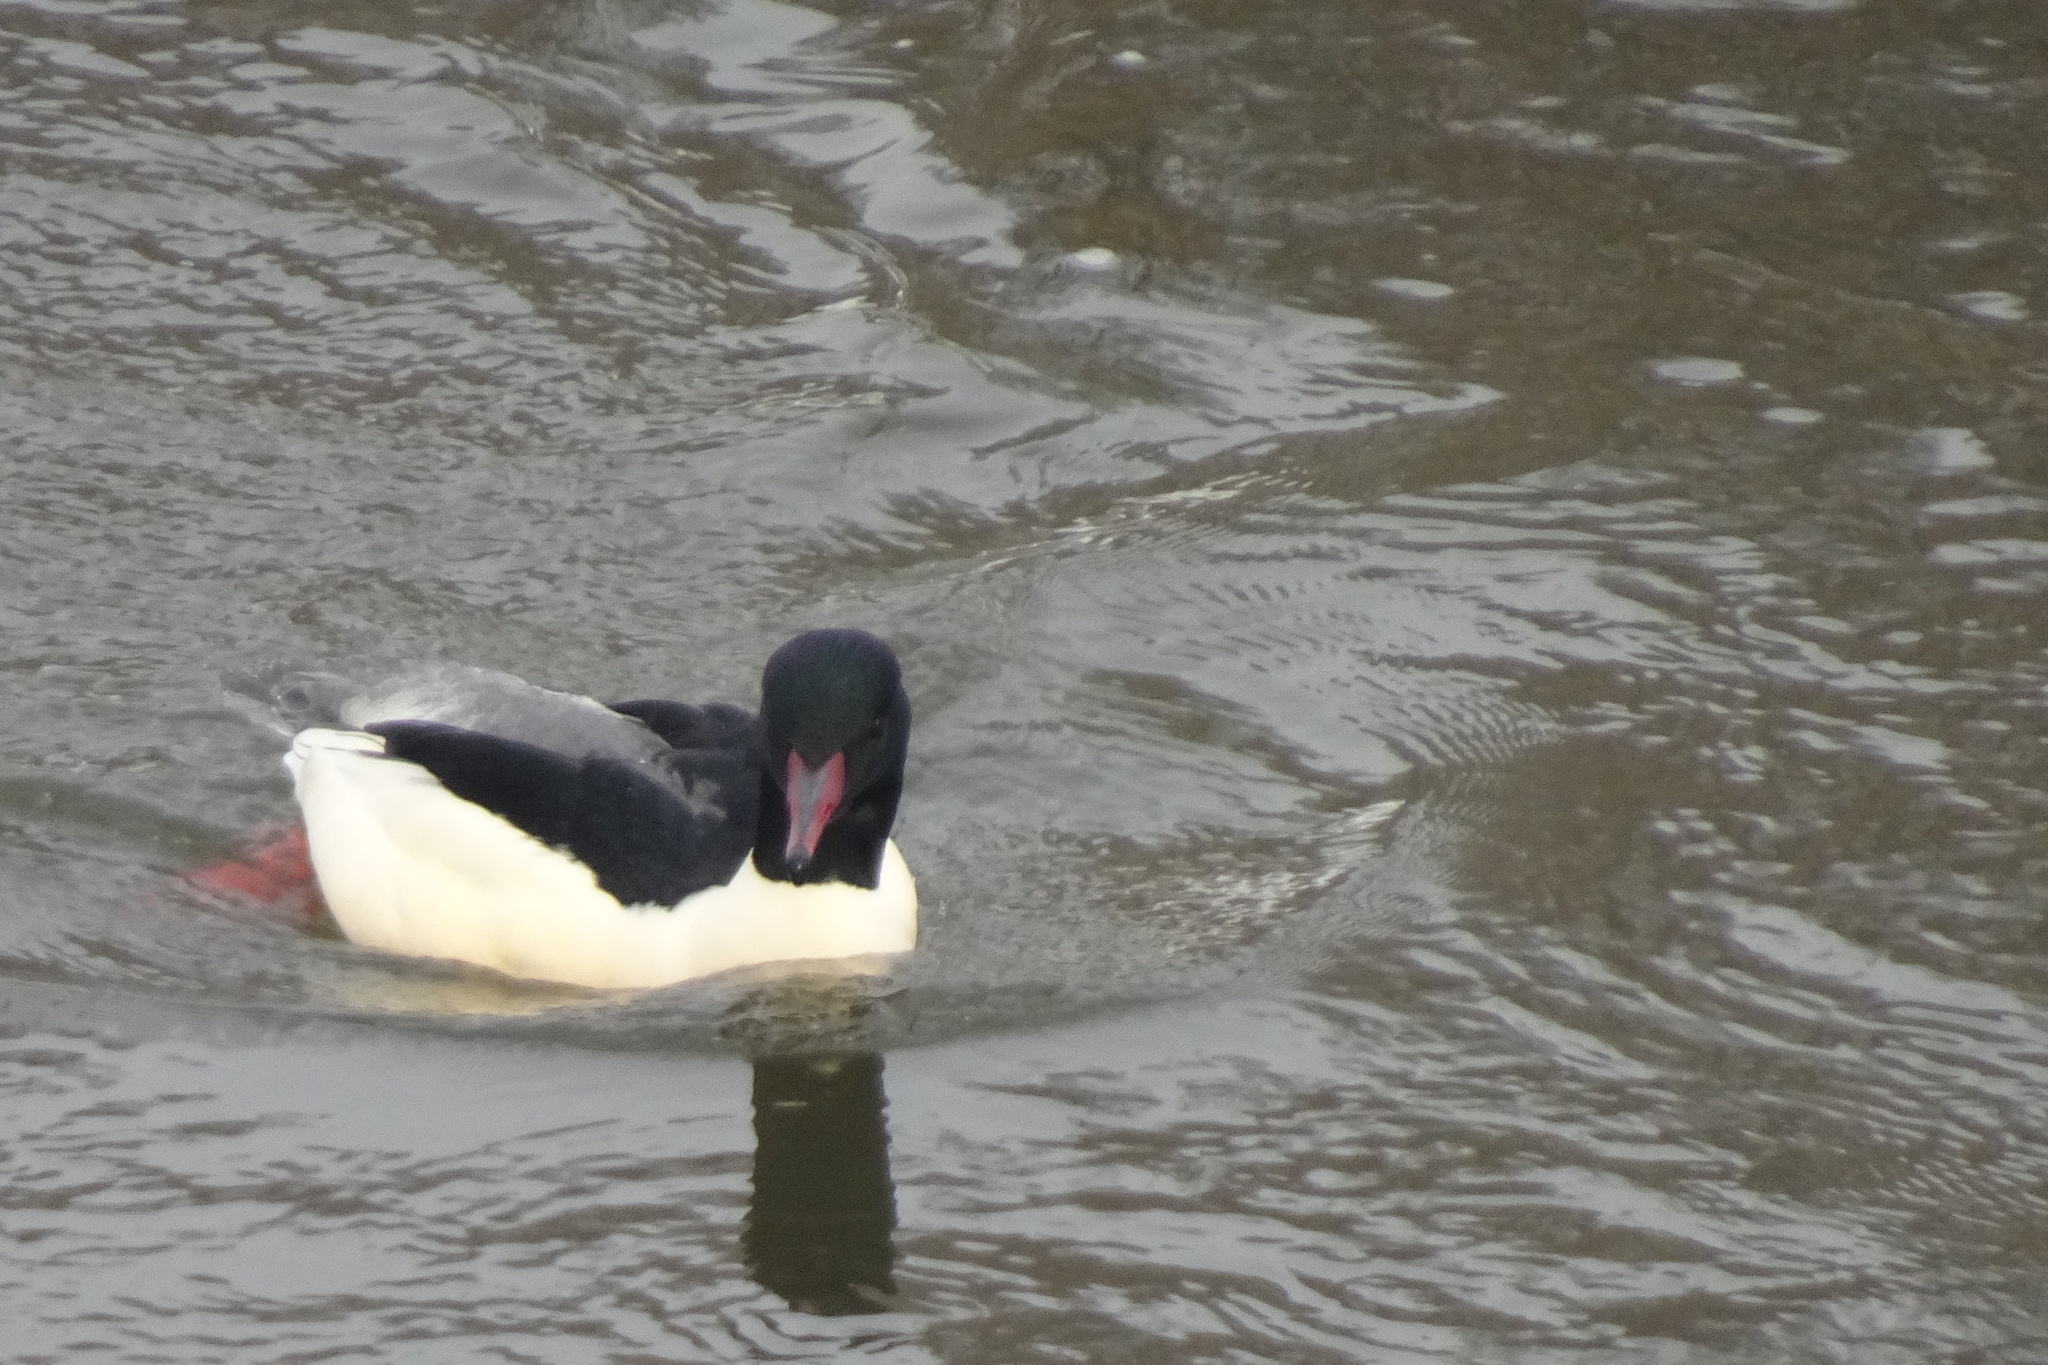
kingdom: Animalia
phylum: Chordata
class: Aves
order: Anseriformes
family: Anatidae
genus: Mergus
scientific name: Mergus merganser
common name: Common merganser
